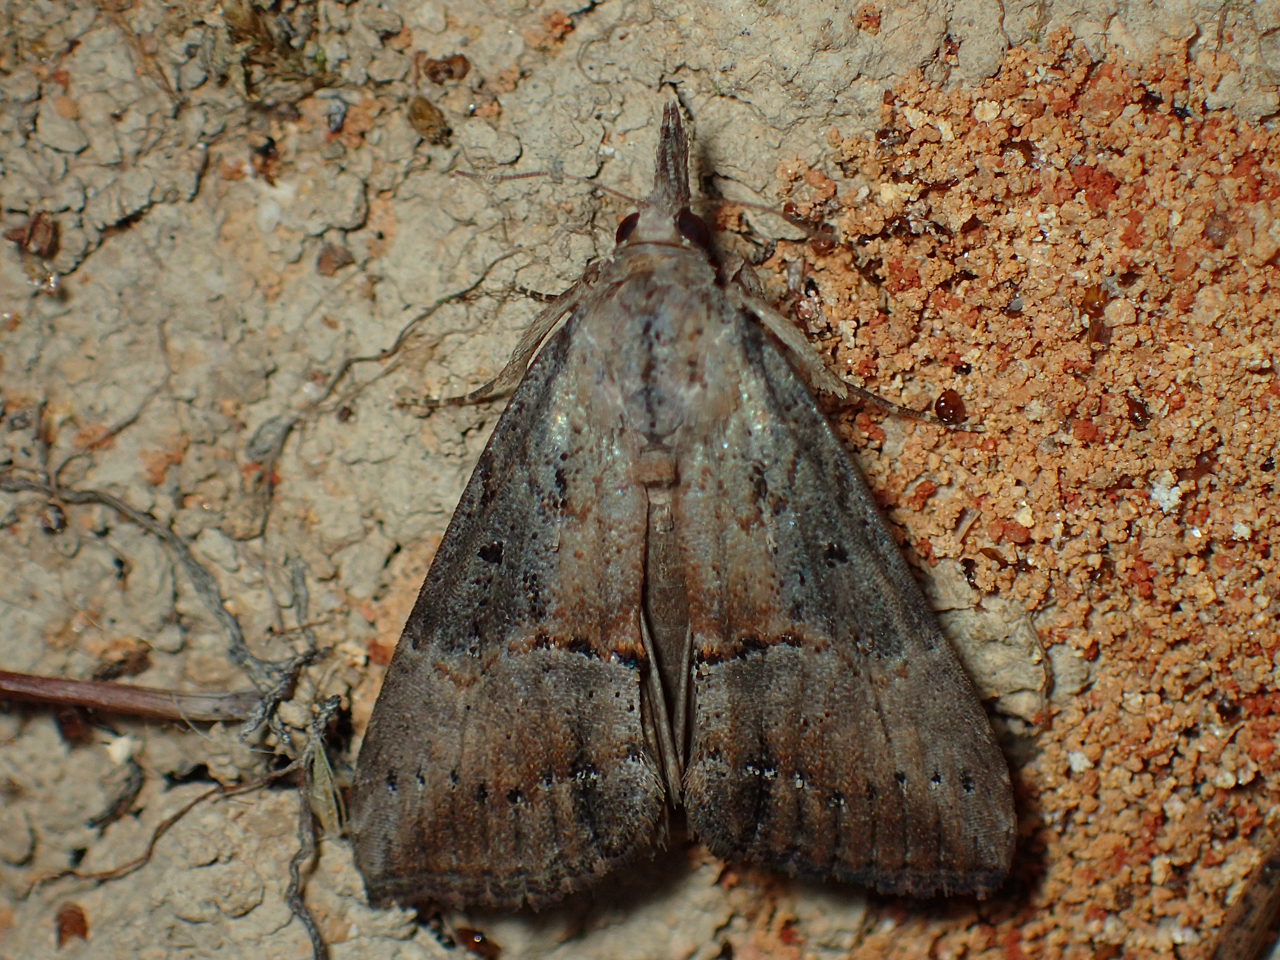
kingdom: Animalia
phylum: Arthropoda
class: Insecta
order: Lepidoptera
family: Erebidae
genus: Hypena
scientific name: Hypena scabra
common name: Green cloverworm
